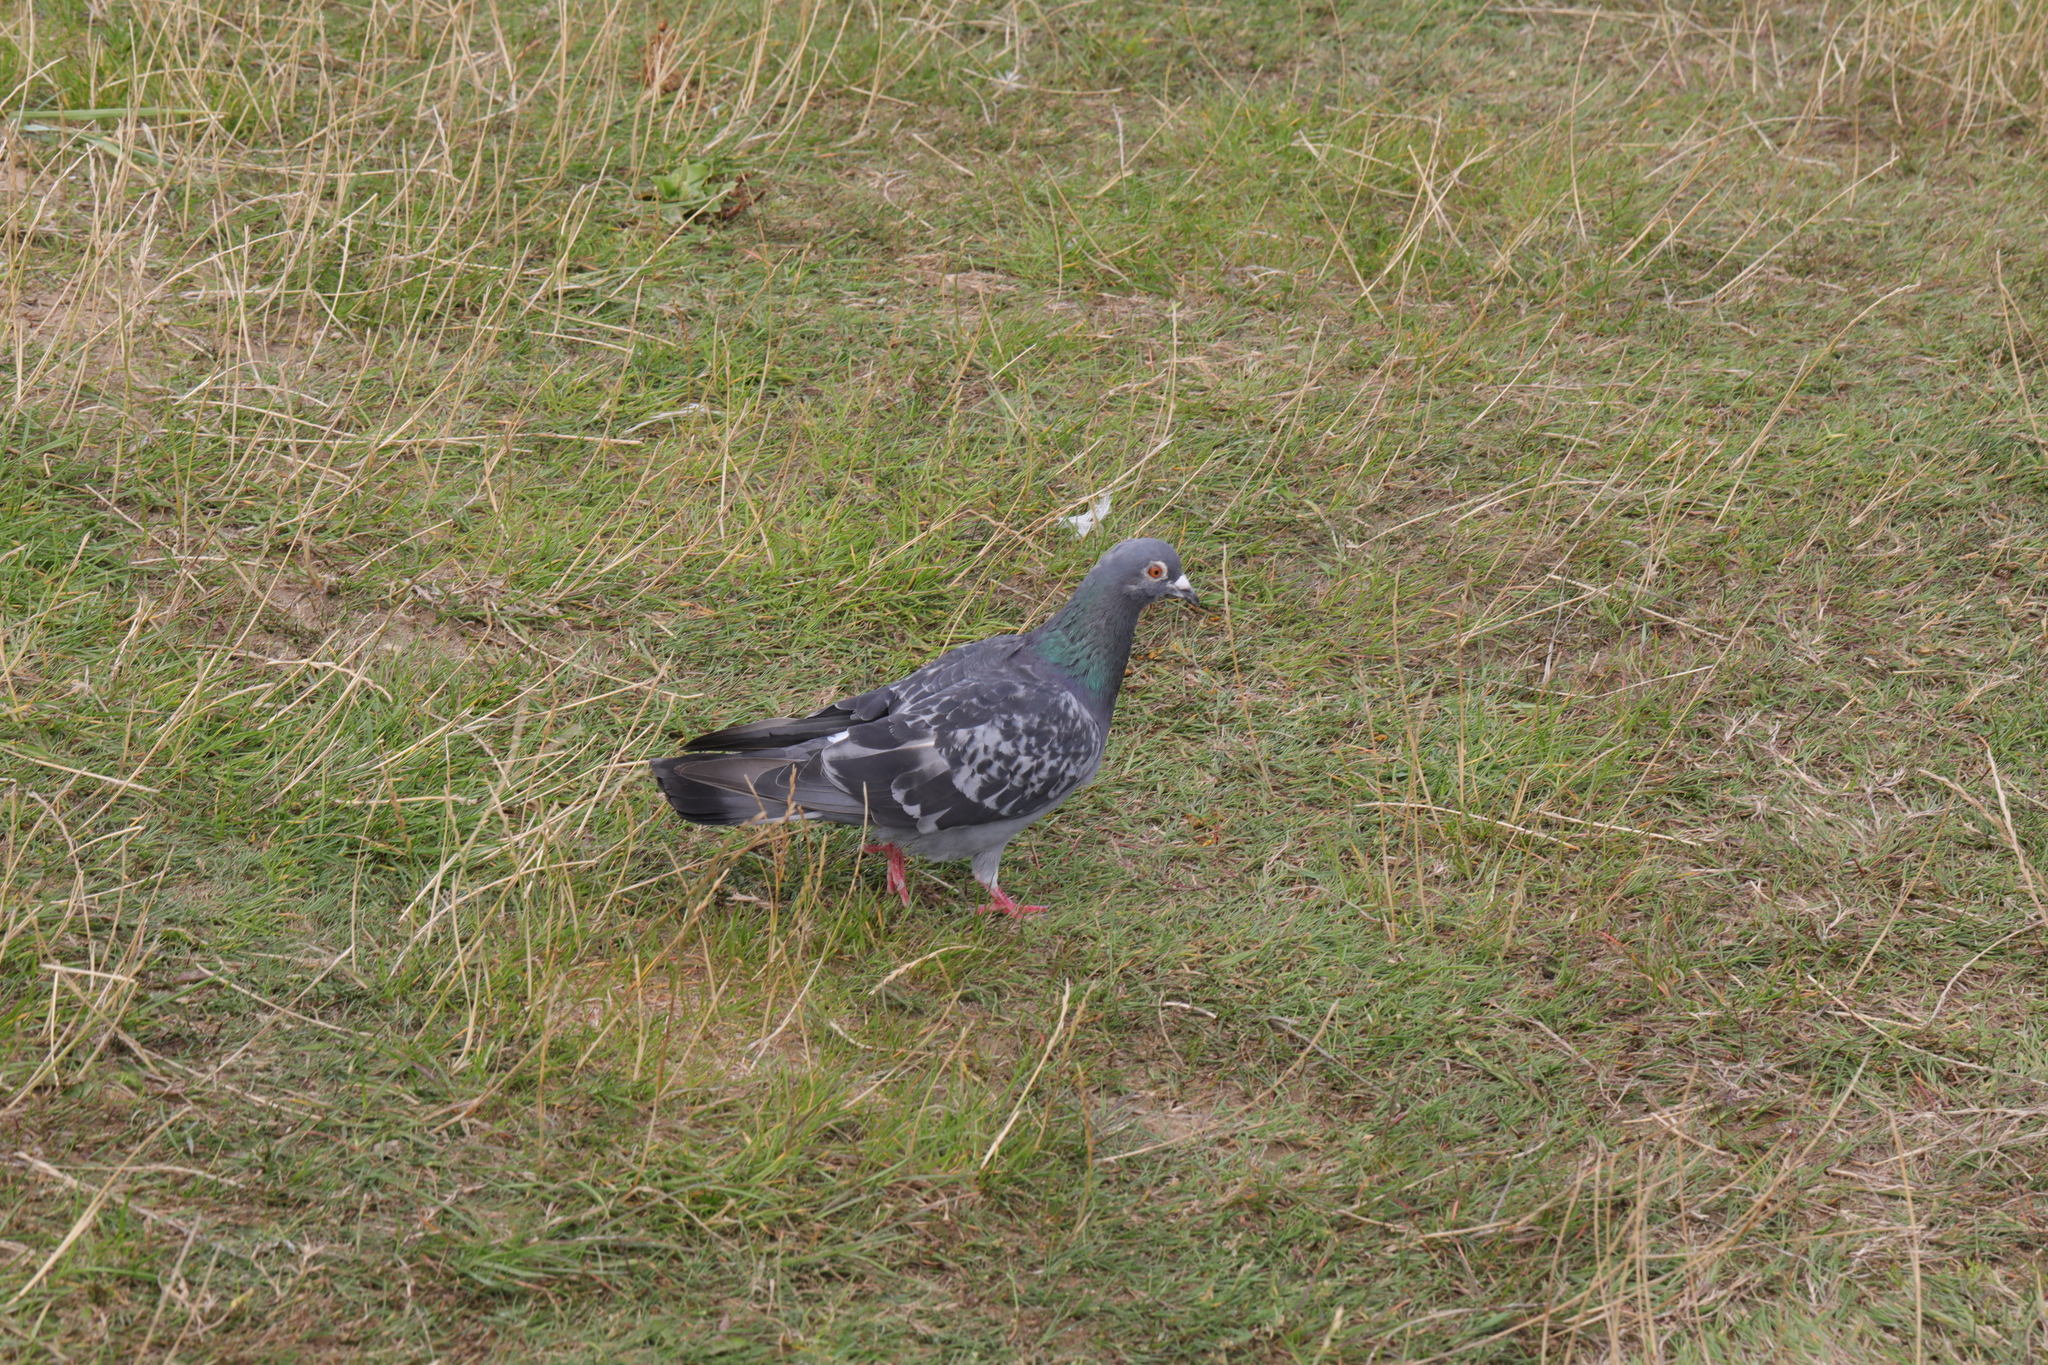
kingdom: Animalia
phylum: Chordata
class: Aves
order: Columbiformes
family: Columbidae
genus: Columba
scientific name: Columba livia
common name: Rock pigeon
